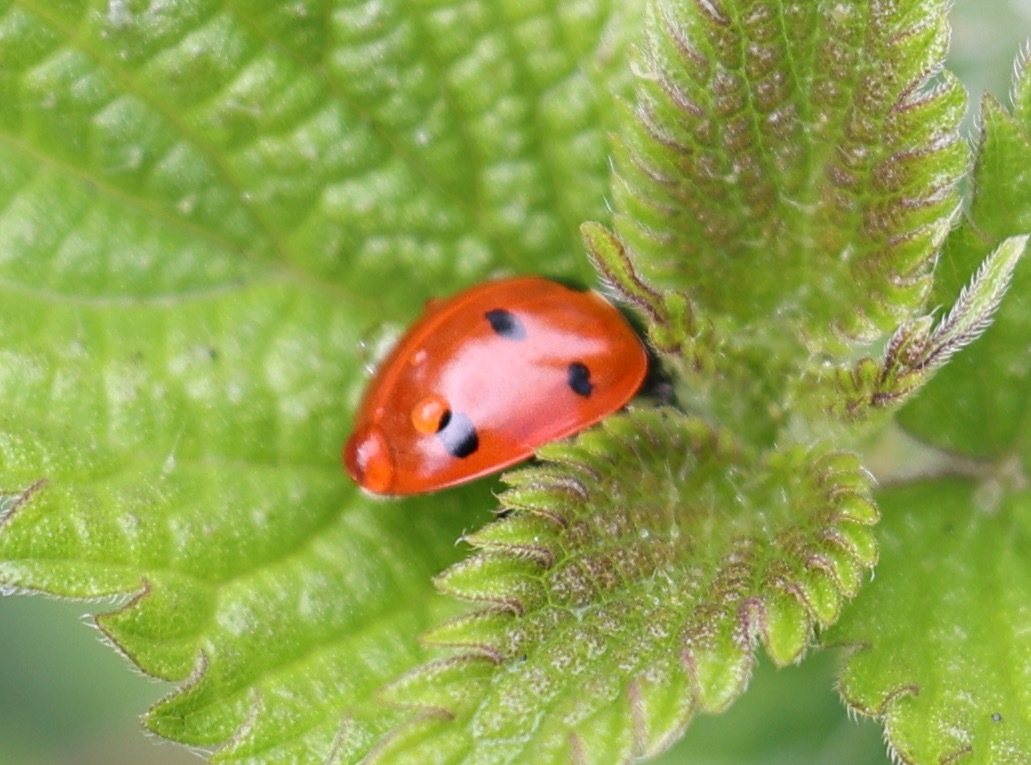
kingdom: Animalia
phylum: Arthropoda
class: Insecta
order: Coleoptera
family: Coccinellidae
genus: Coccinella
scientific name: Coccinella septempunctata
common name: Sevenspotted lady beetle
